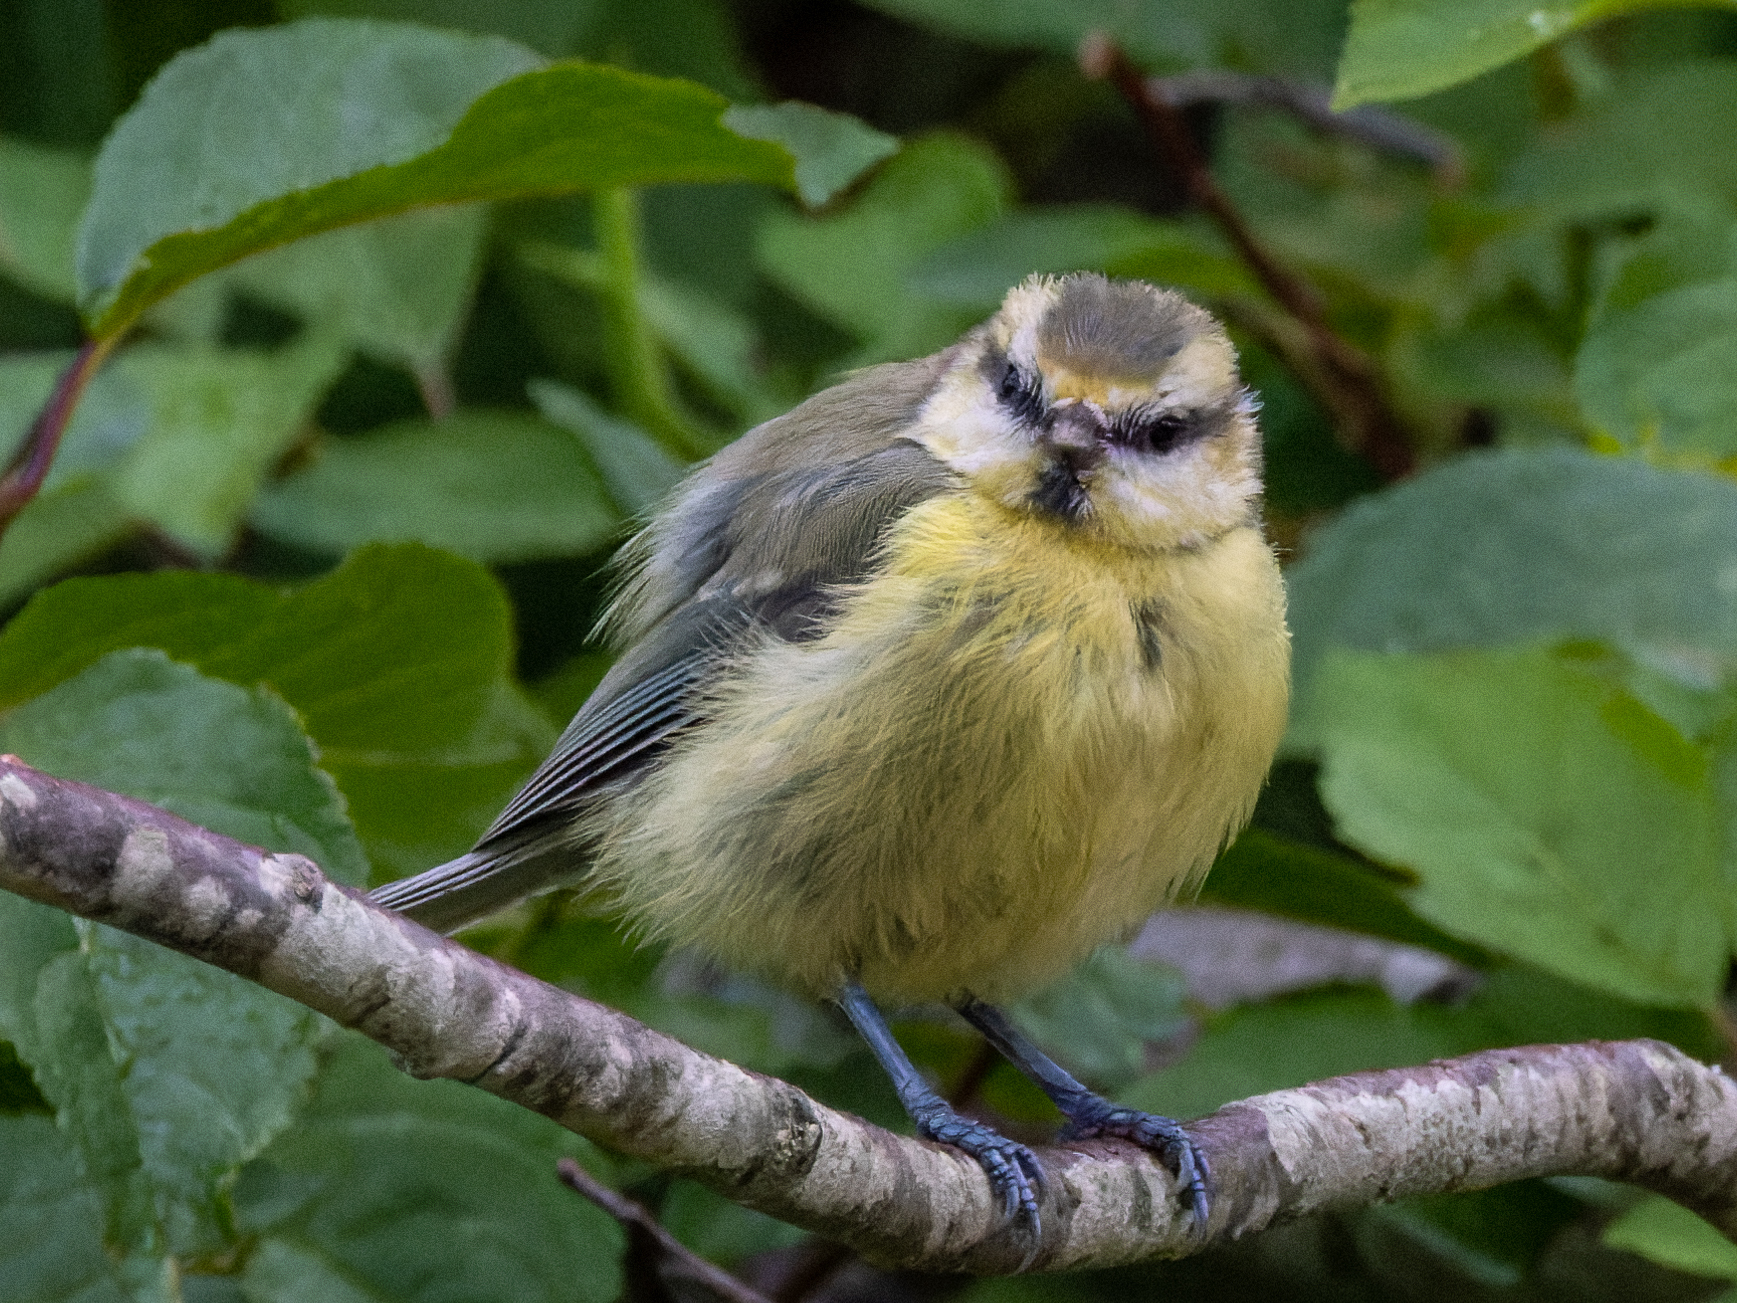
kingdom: Animalia
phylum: Chordata
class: Aves
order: Passeriformes
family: Paridae
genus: Cyanistes
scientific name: Cyanistes caeruleus
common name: Eurasian blue tit
